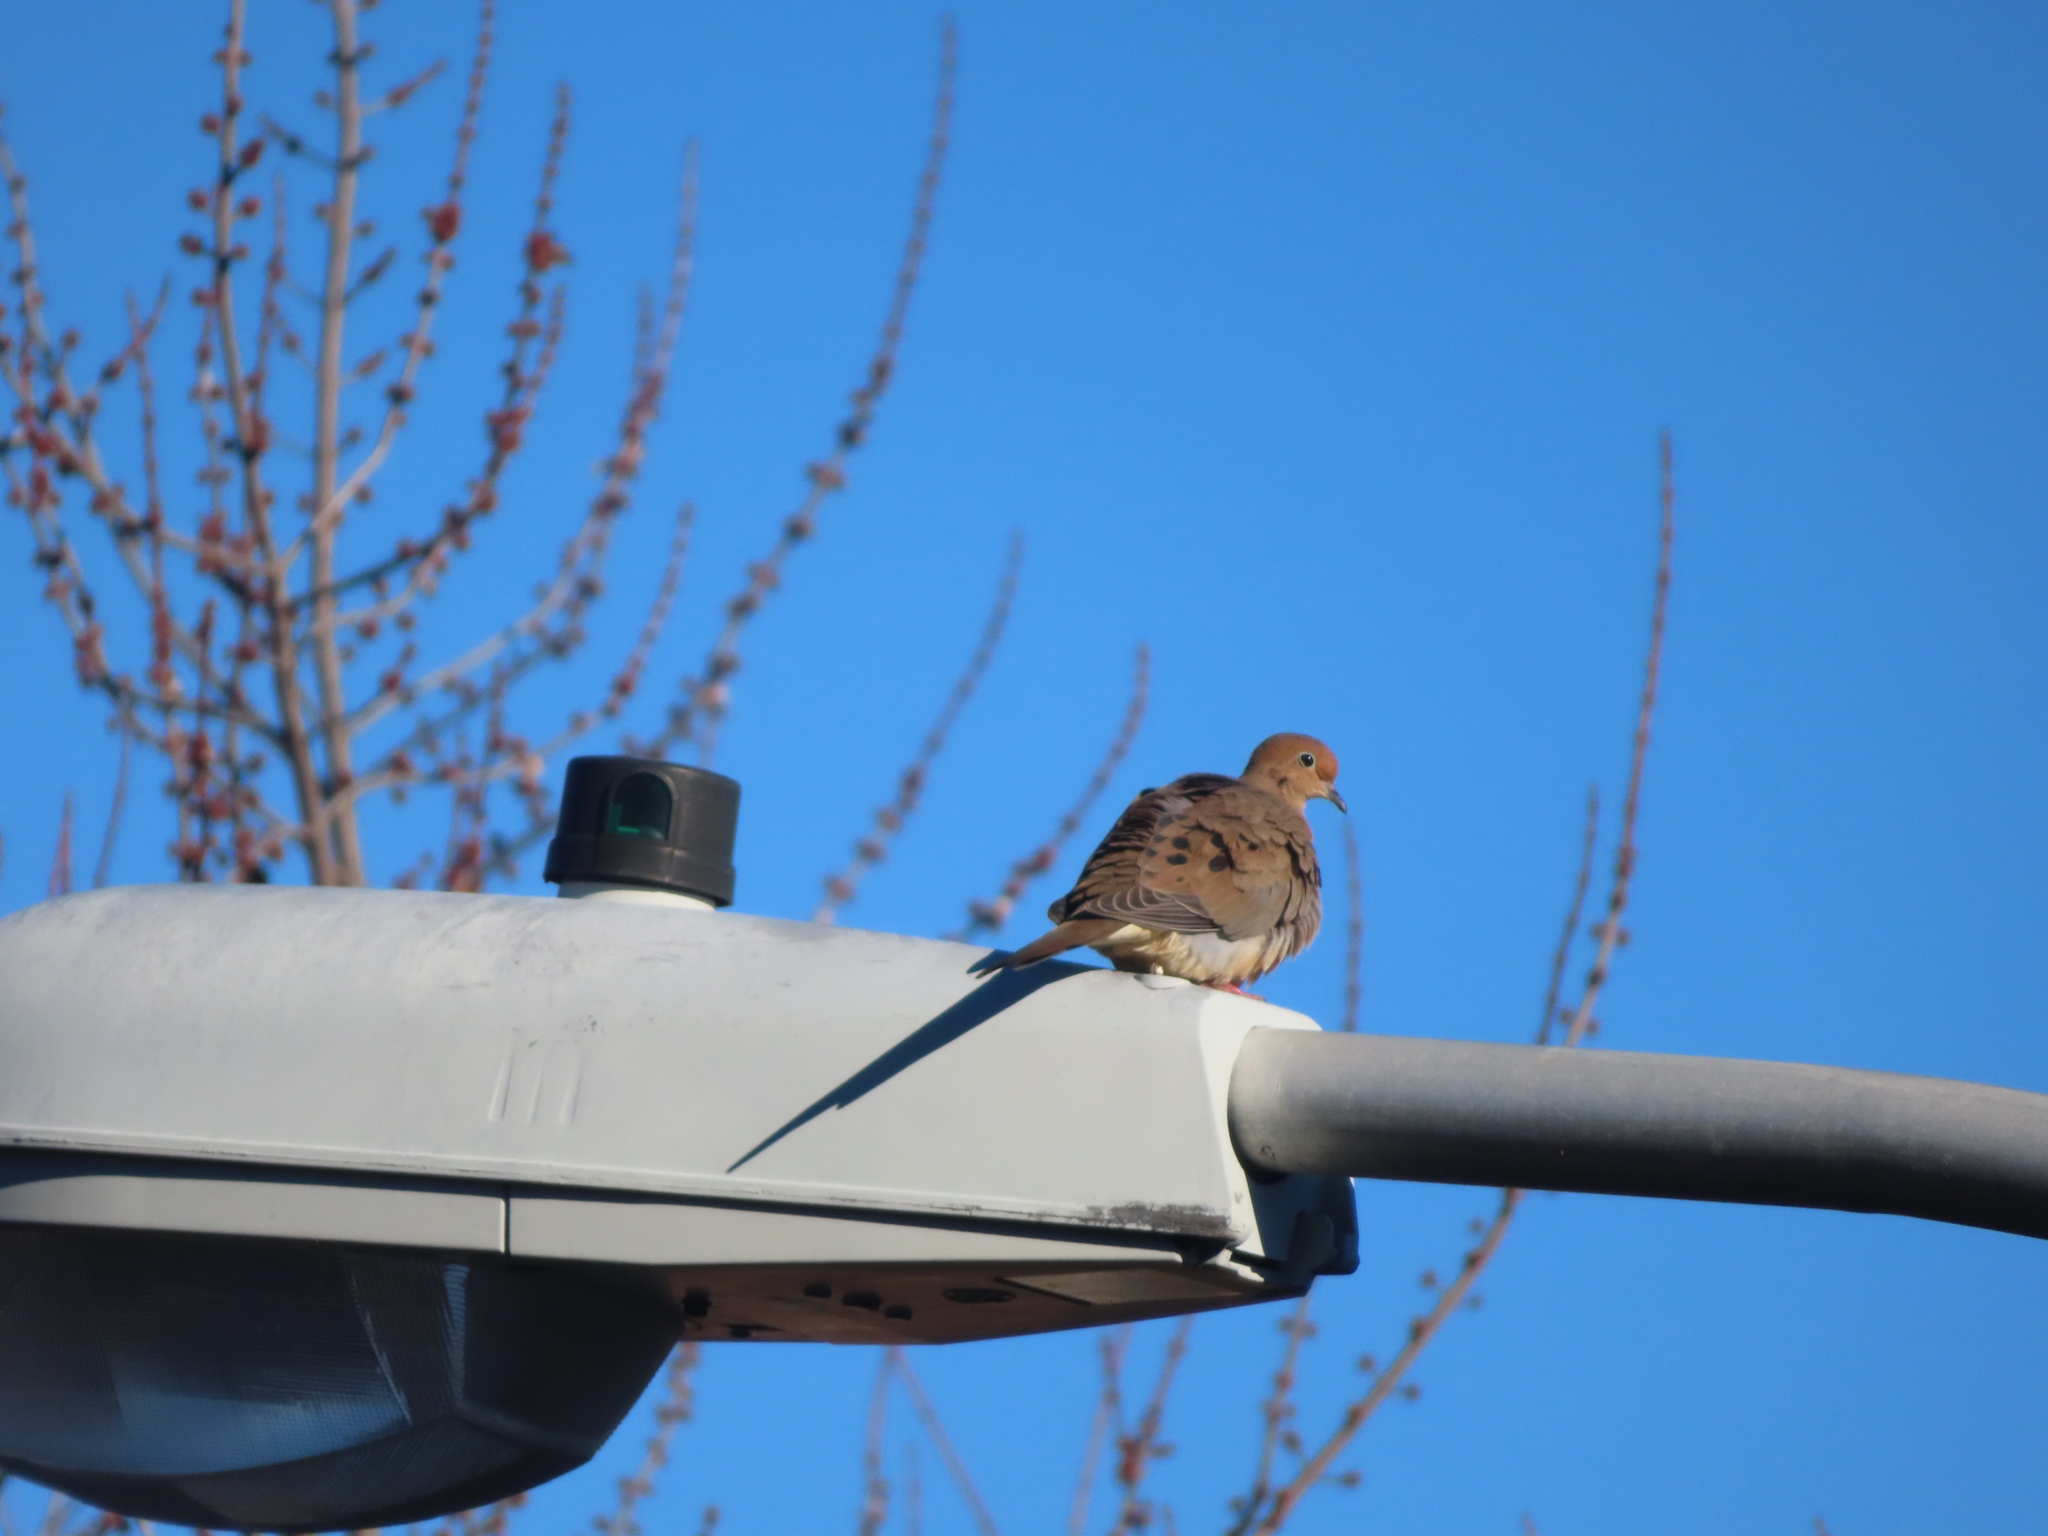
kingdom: Animalia
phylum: Chordata
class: Aves
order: Columbiformes
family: Columbidae
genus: Zenaida
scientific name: Zenaida macroura
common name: Mourning dove
